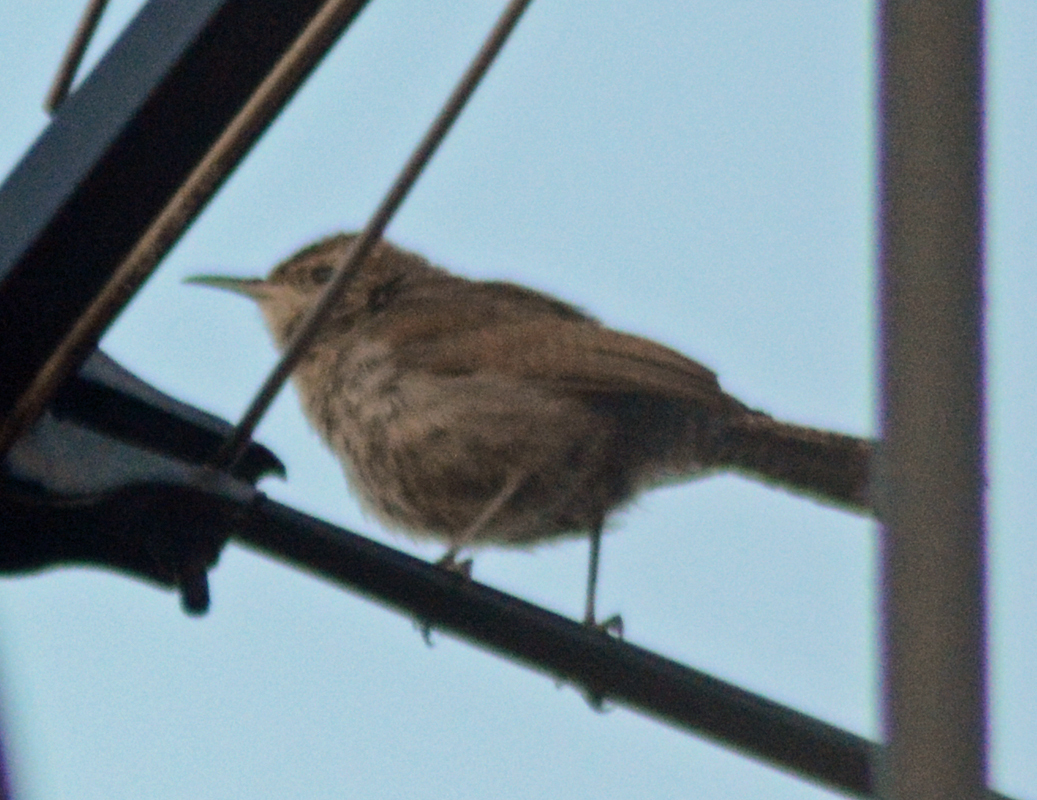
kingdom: Animalia
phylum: Chordata
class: Aves
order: Passeriformes
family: Troglodytidae
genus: Thryomanes
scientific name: Thryomanes bewickii
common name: Bewick's wren
